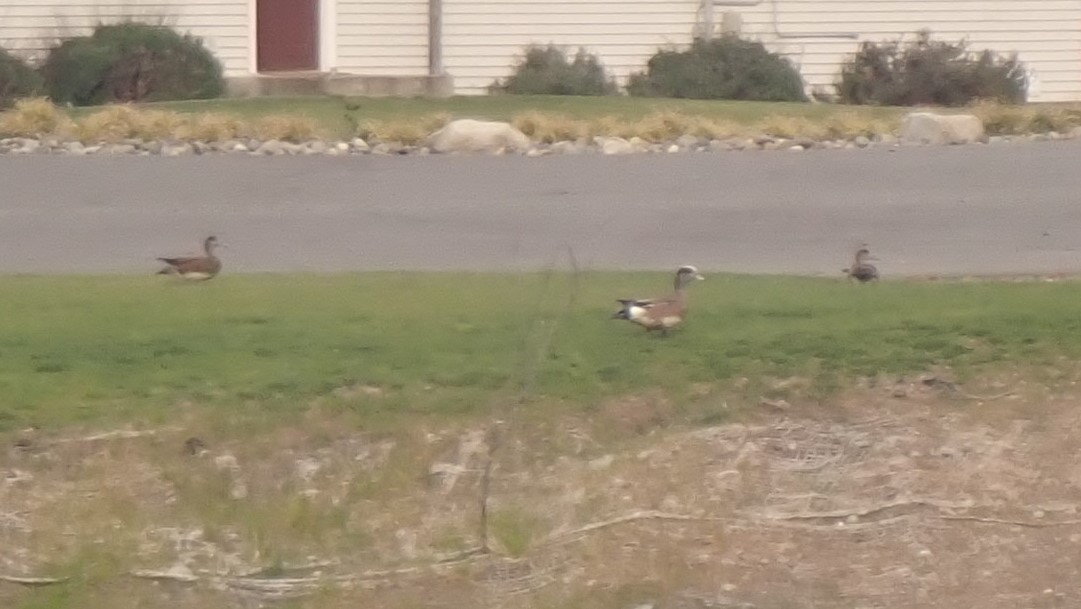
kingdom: Animalia
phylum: Chordata
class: Aves
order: Anseriformes
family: Anatidae
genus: Mareca
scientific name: Mareca americana
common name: American wigeon
